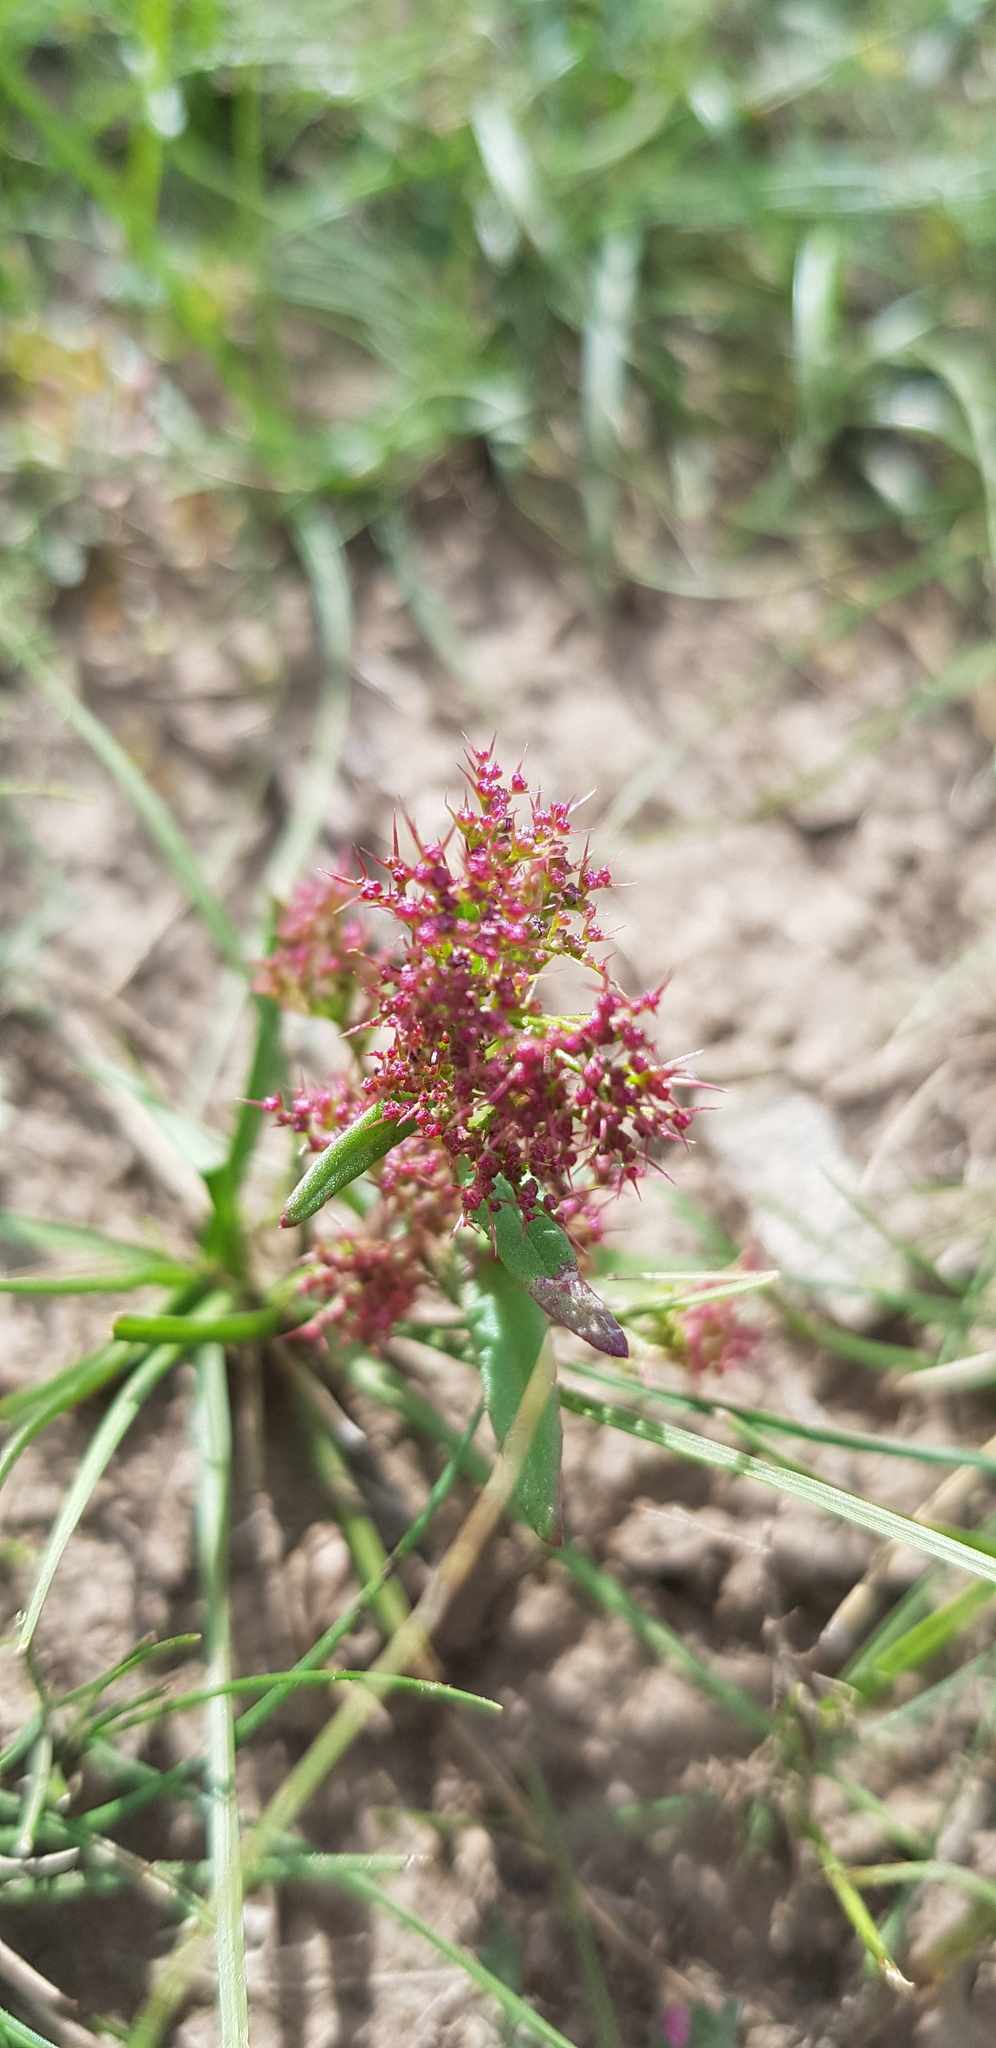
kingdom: Plantae
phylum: Tracheophyta
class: Magnoliopsida
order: Caryophyllales
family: Amaranthaceae
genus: Teloxys
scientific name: Teloxys aristata
